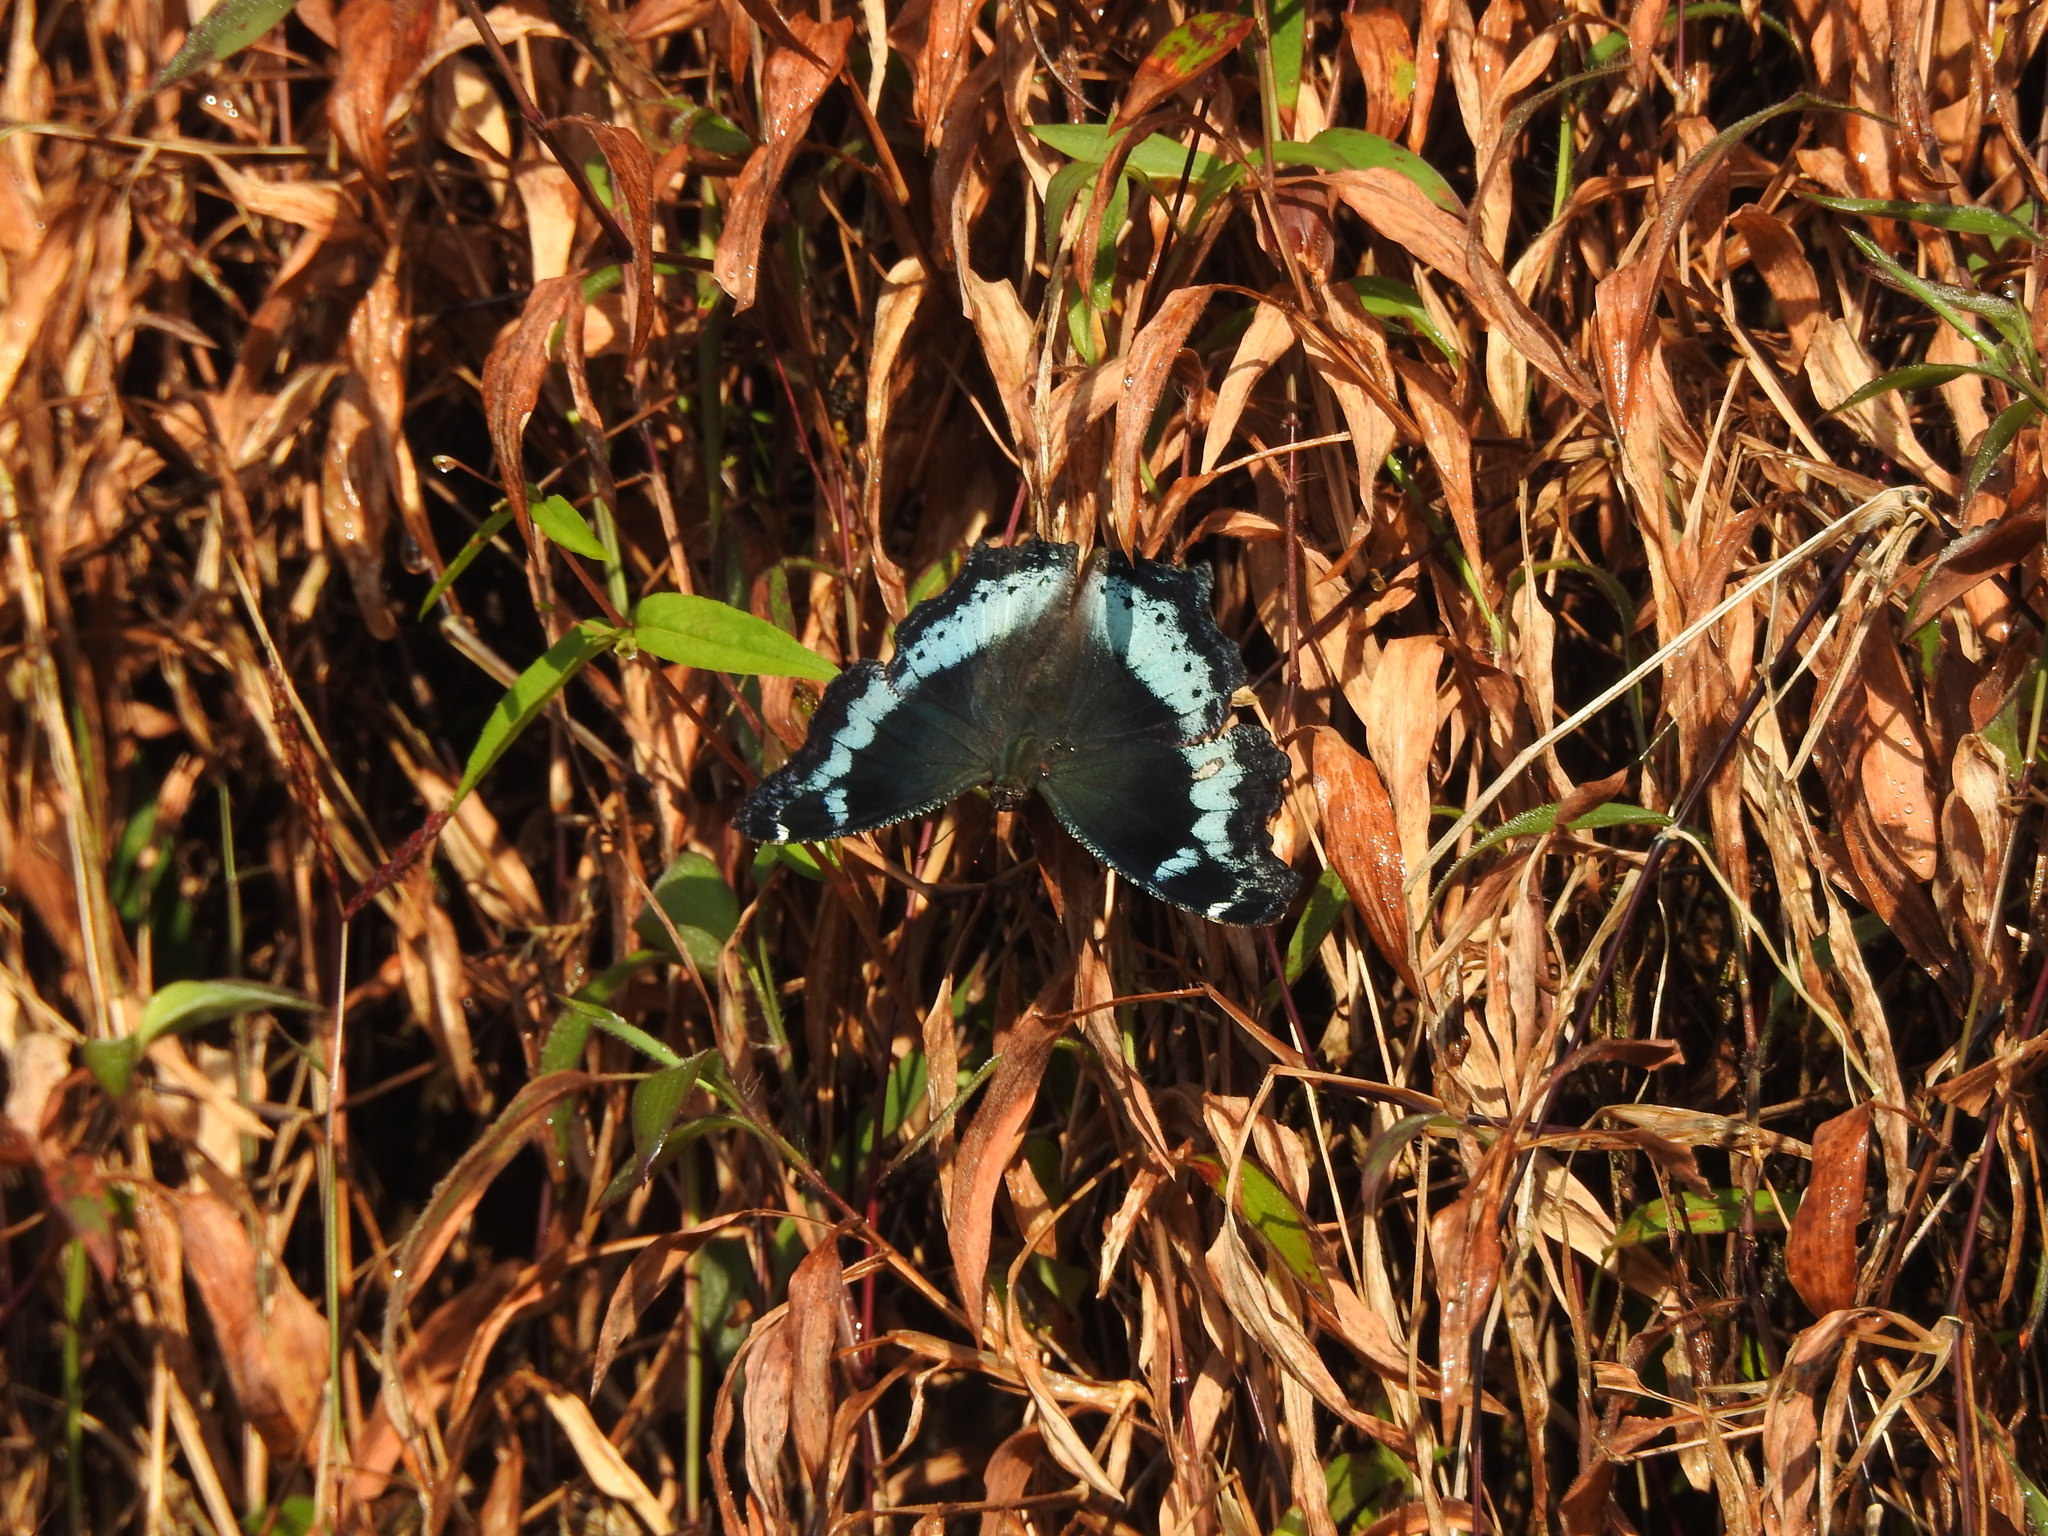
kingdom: Animalia
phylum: Arthropoda
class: Insecta
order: Lepidoptera
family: Nymphalidae
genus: Vanessa
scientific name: Vanessa Kaniska canace
